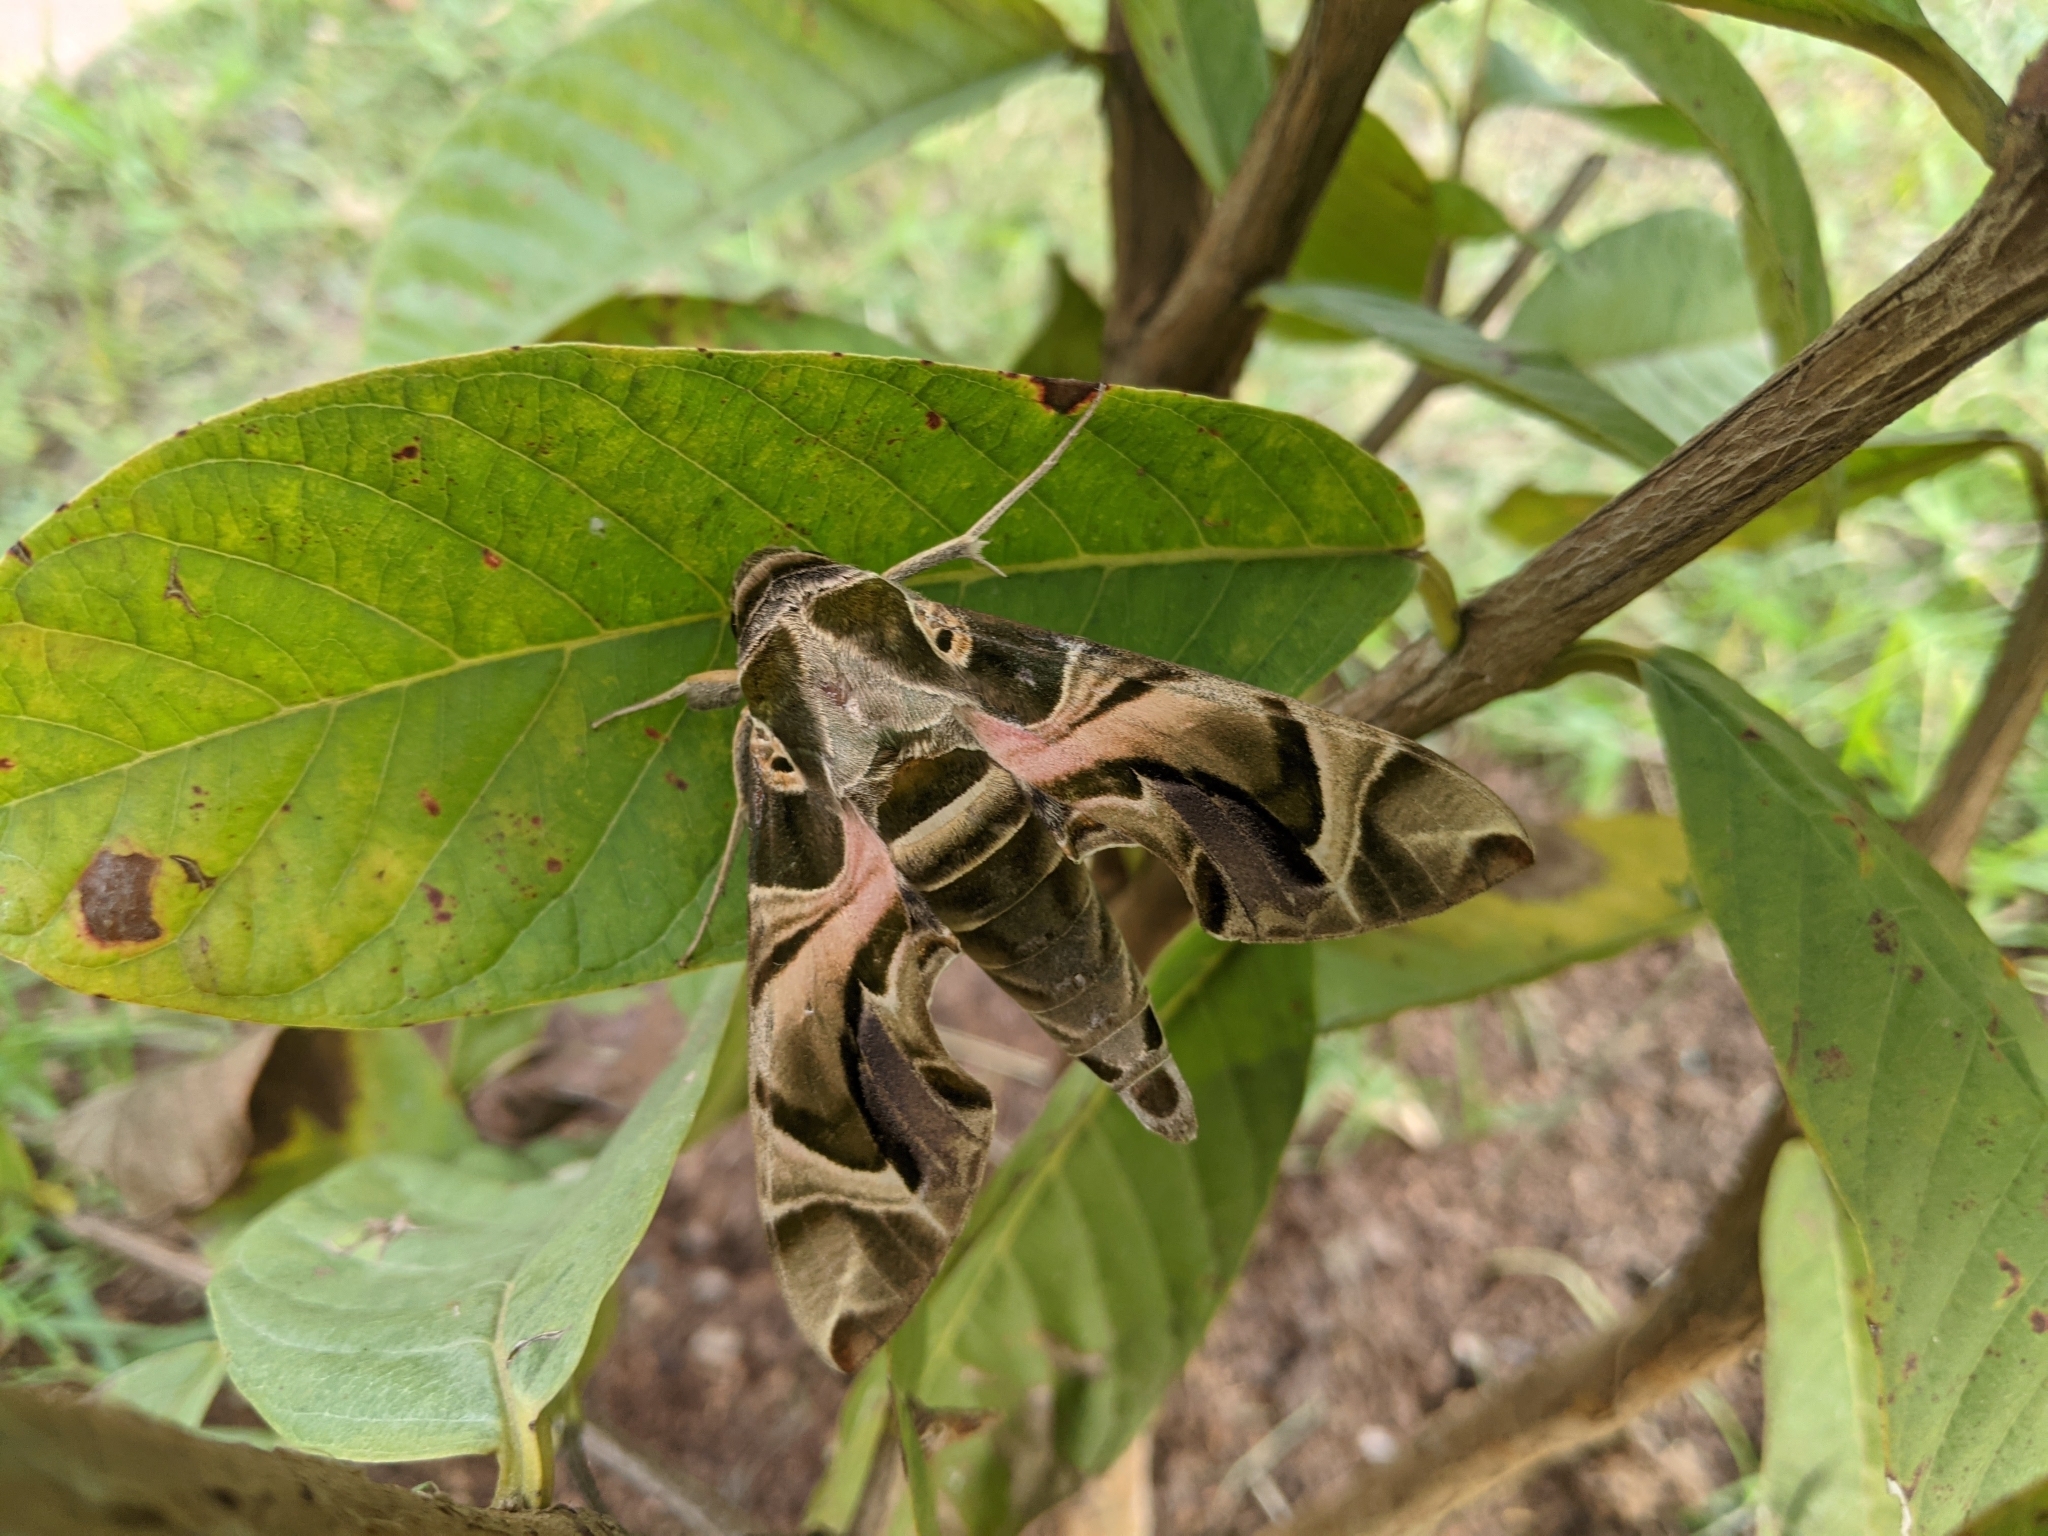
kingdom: Animalia
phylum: Arthropoda
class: Insecta
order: Lepidoptera
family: Sphingidae
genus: Daphnis
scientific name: Daphnis nerii
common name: Oleander hawk-moth
